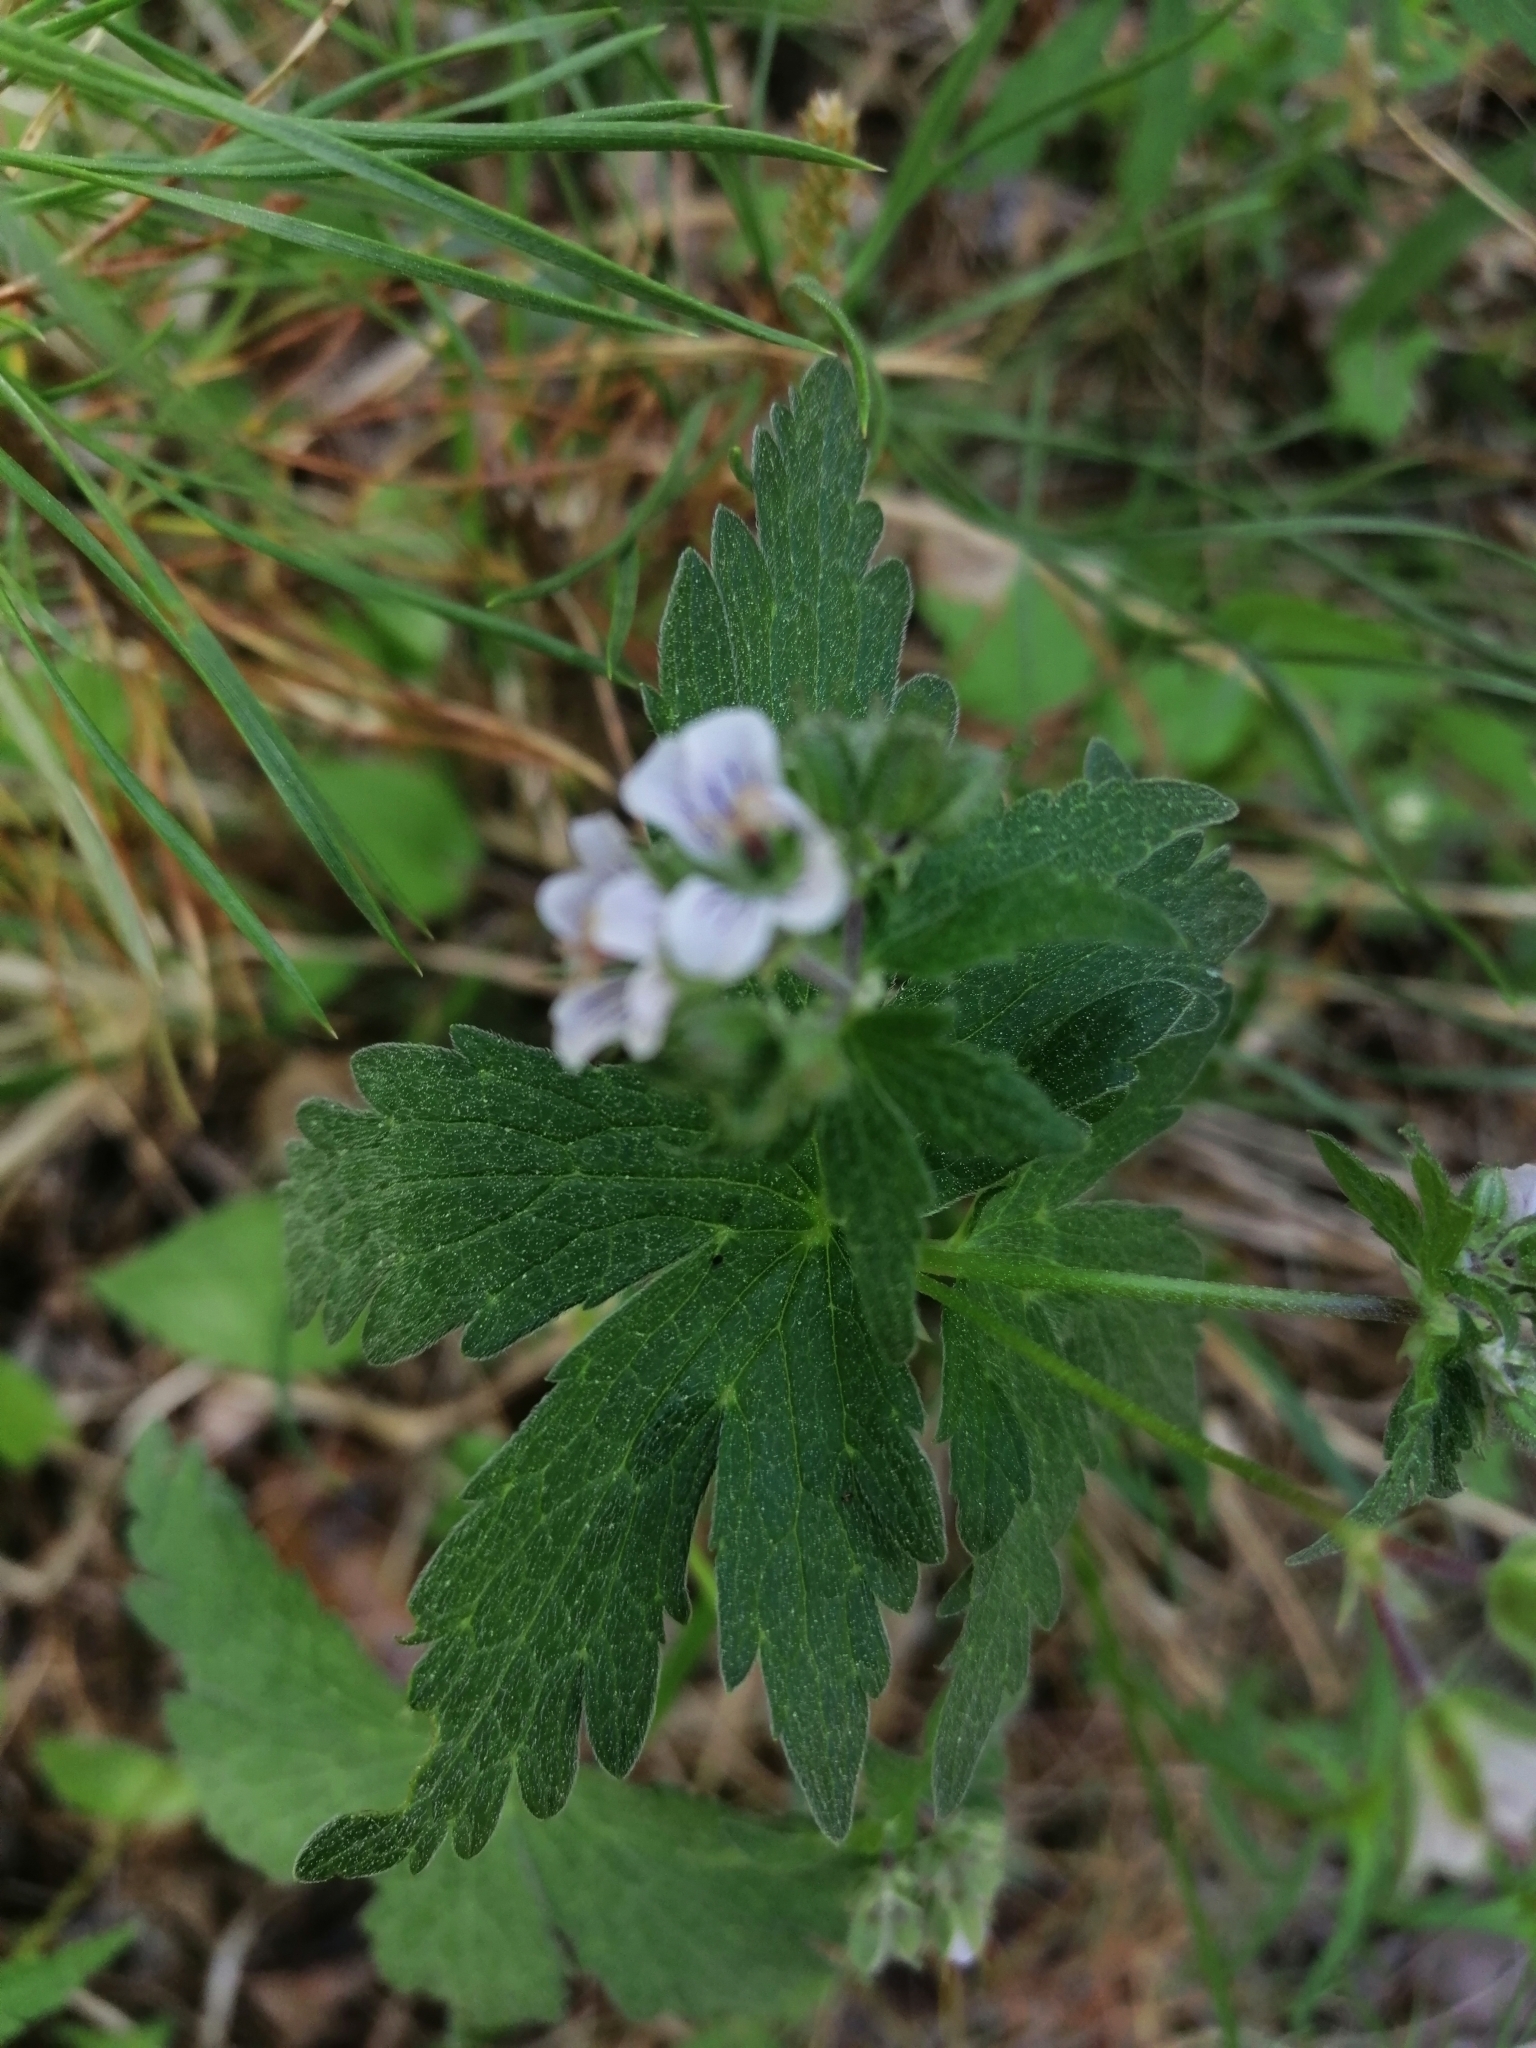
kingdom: Plantae
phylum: Tracheophyta
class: Magnoliopsida
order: Geraniales
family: Geraniaceae
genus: Geranium
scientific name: Geranium sylvaticum
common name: Wood crane's-bill
